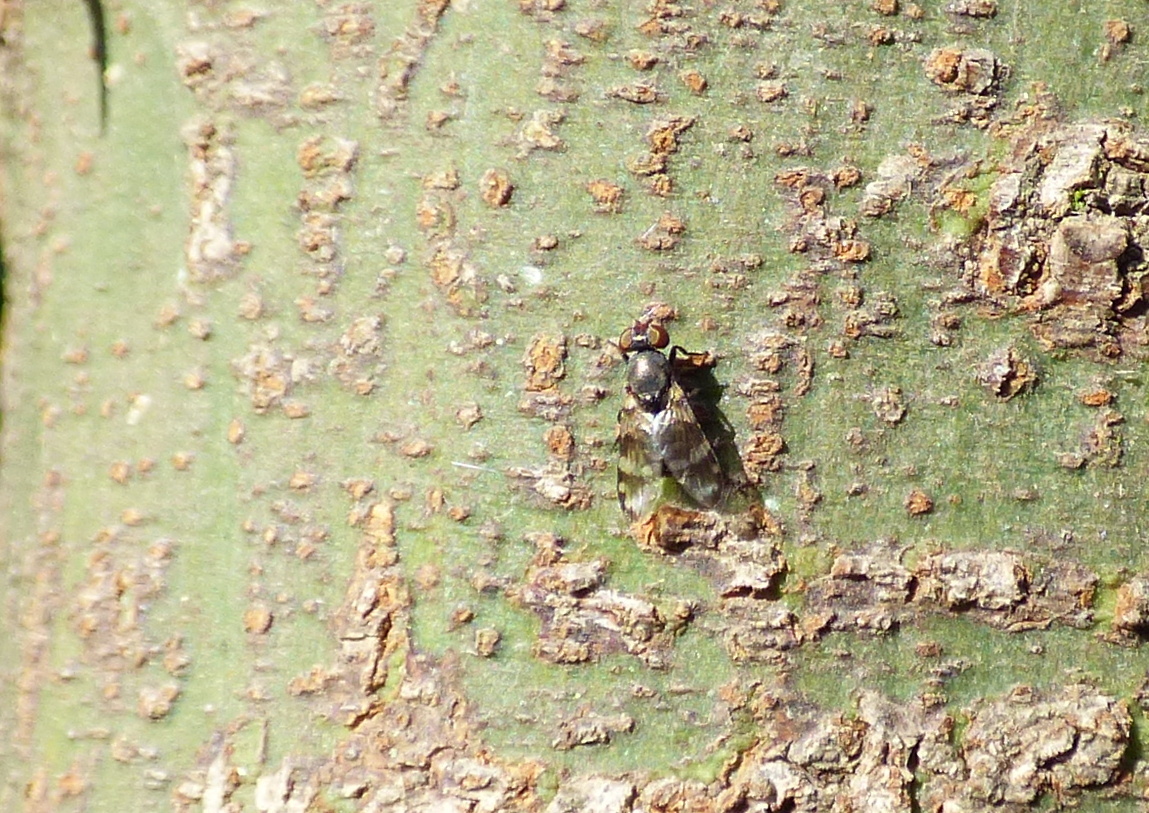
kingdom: Animalia
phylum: Arthropoda
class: Insecta
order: Diptera
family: Ulidiidae
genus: Euxesta
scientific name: Euxesta eluta
